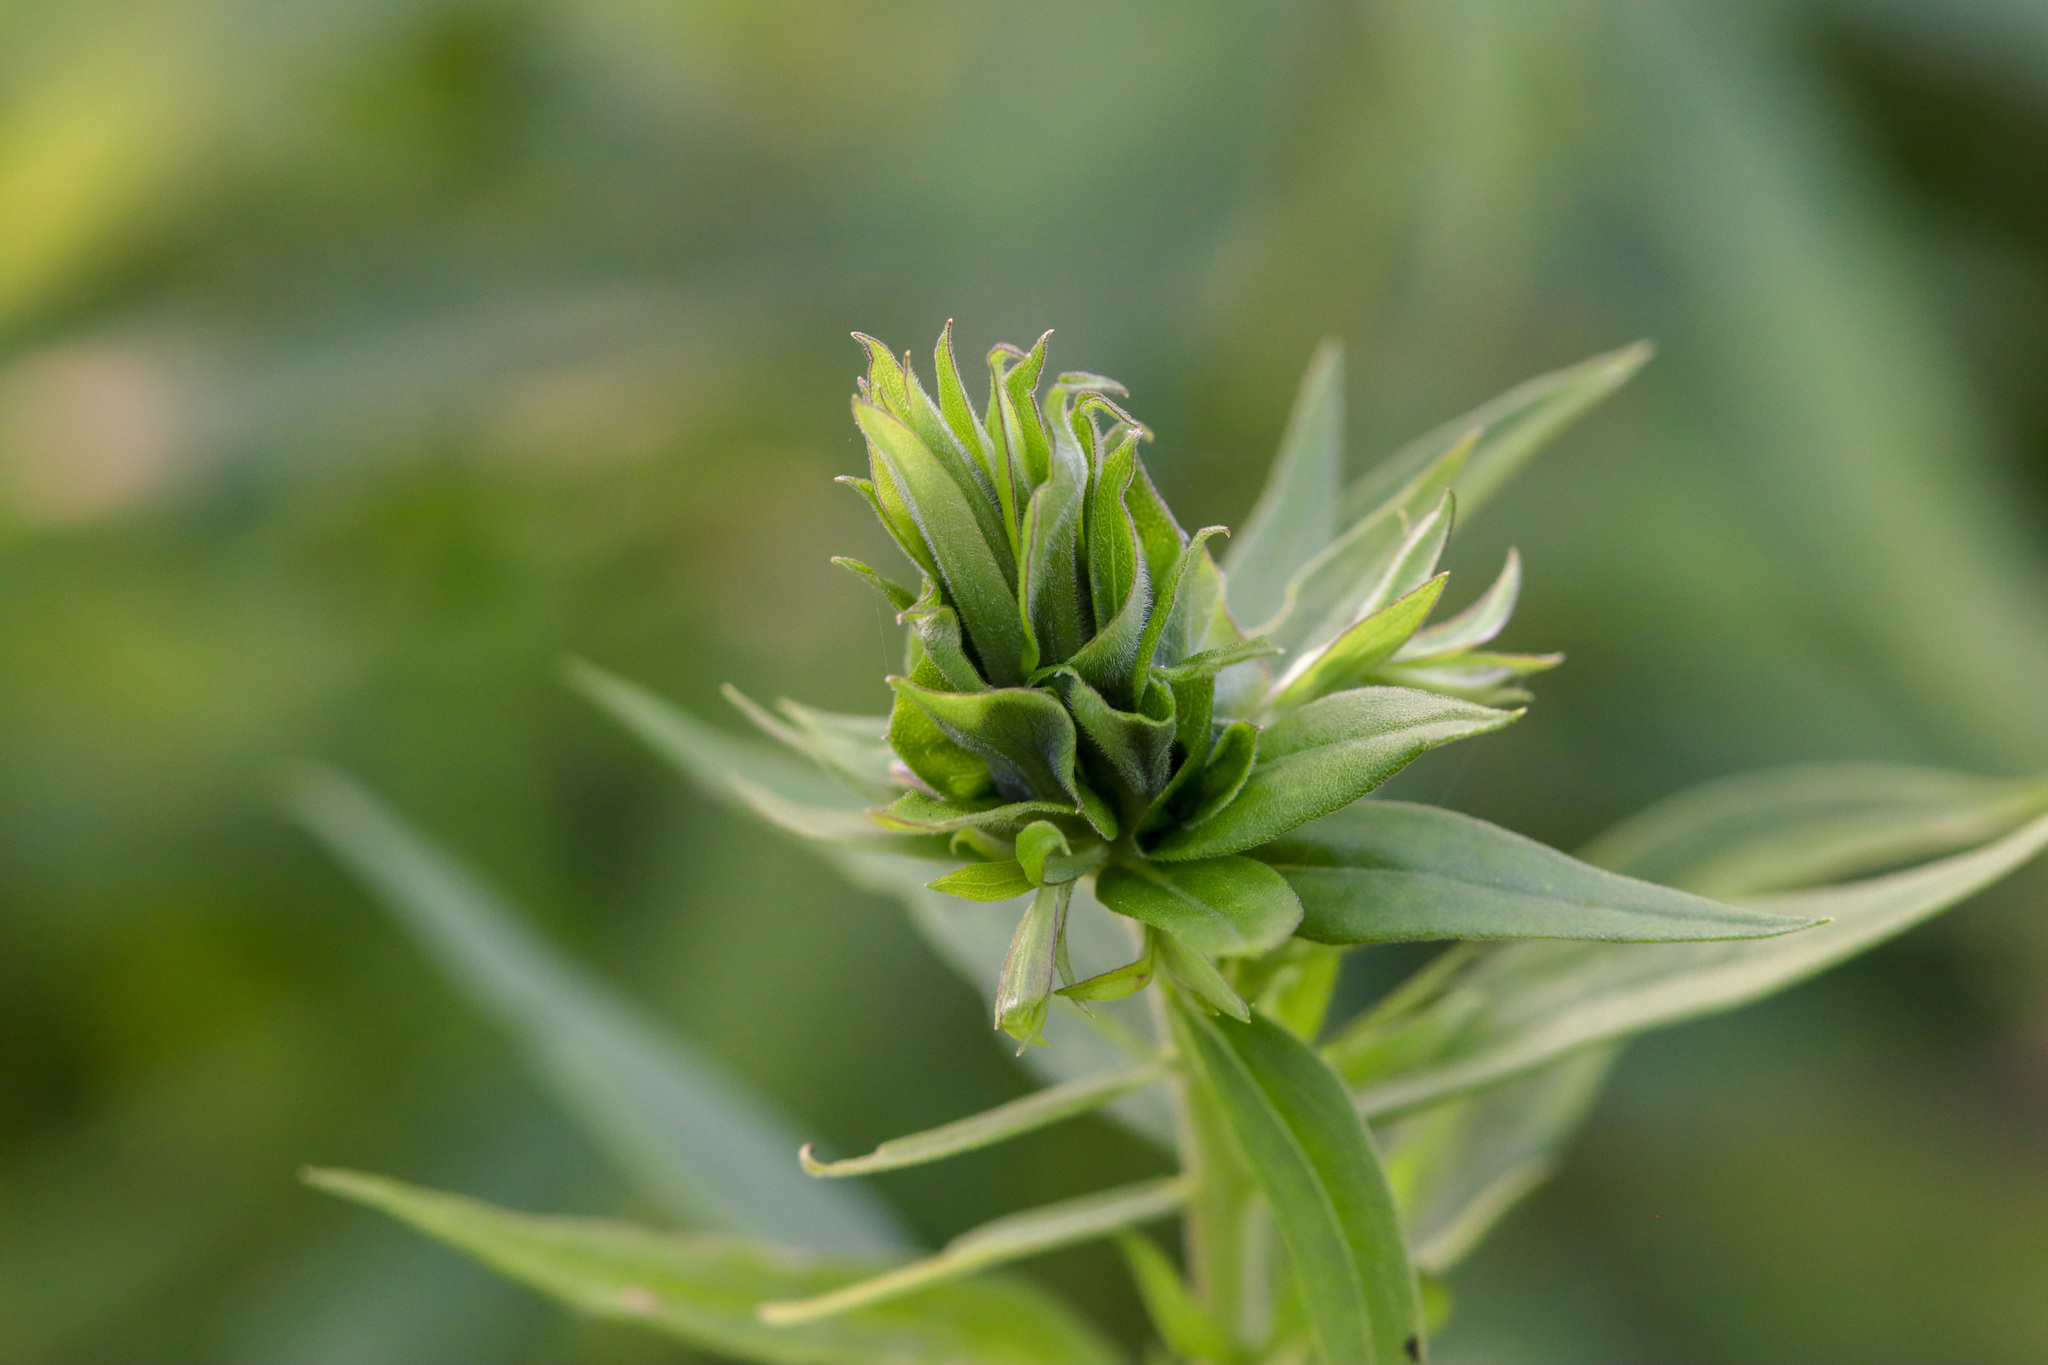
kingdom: Animalia
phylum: Arthropoda
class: Insecta
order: Diptera
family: Cecidomyiidae
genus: Rhopalomyia
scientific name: Rhopalomyia solidaginis
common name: Goldenrod bunch gall midge
